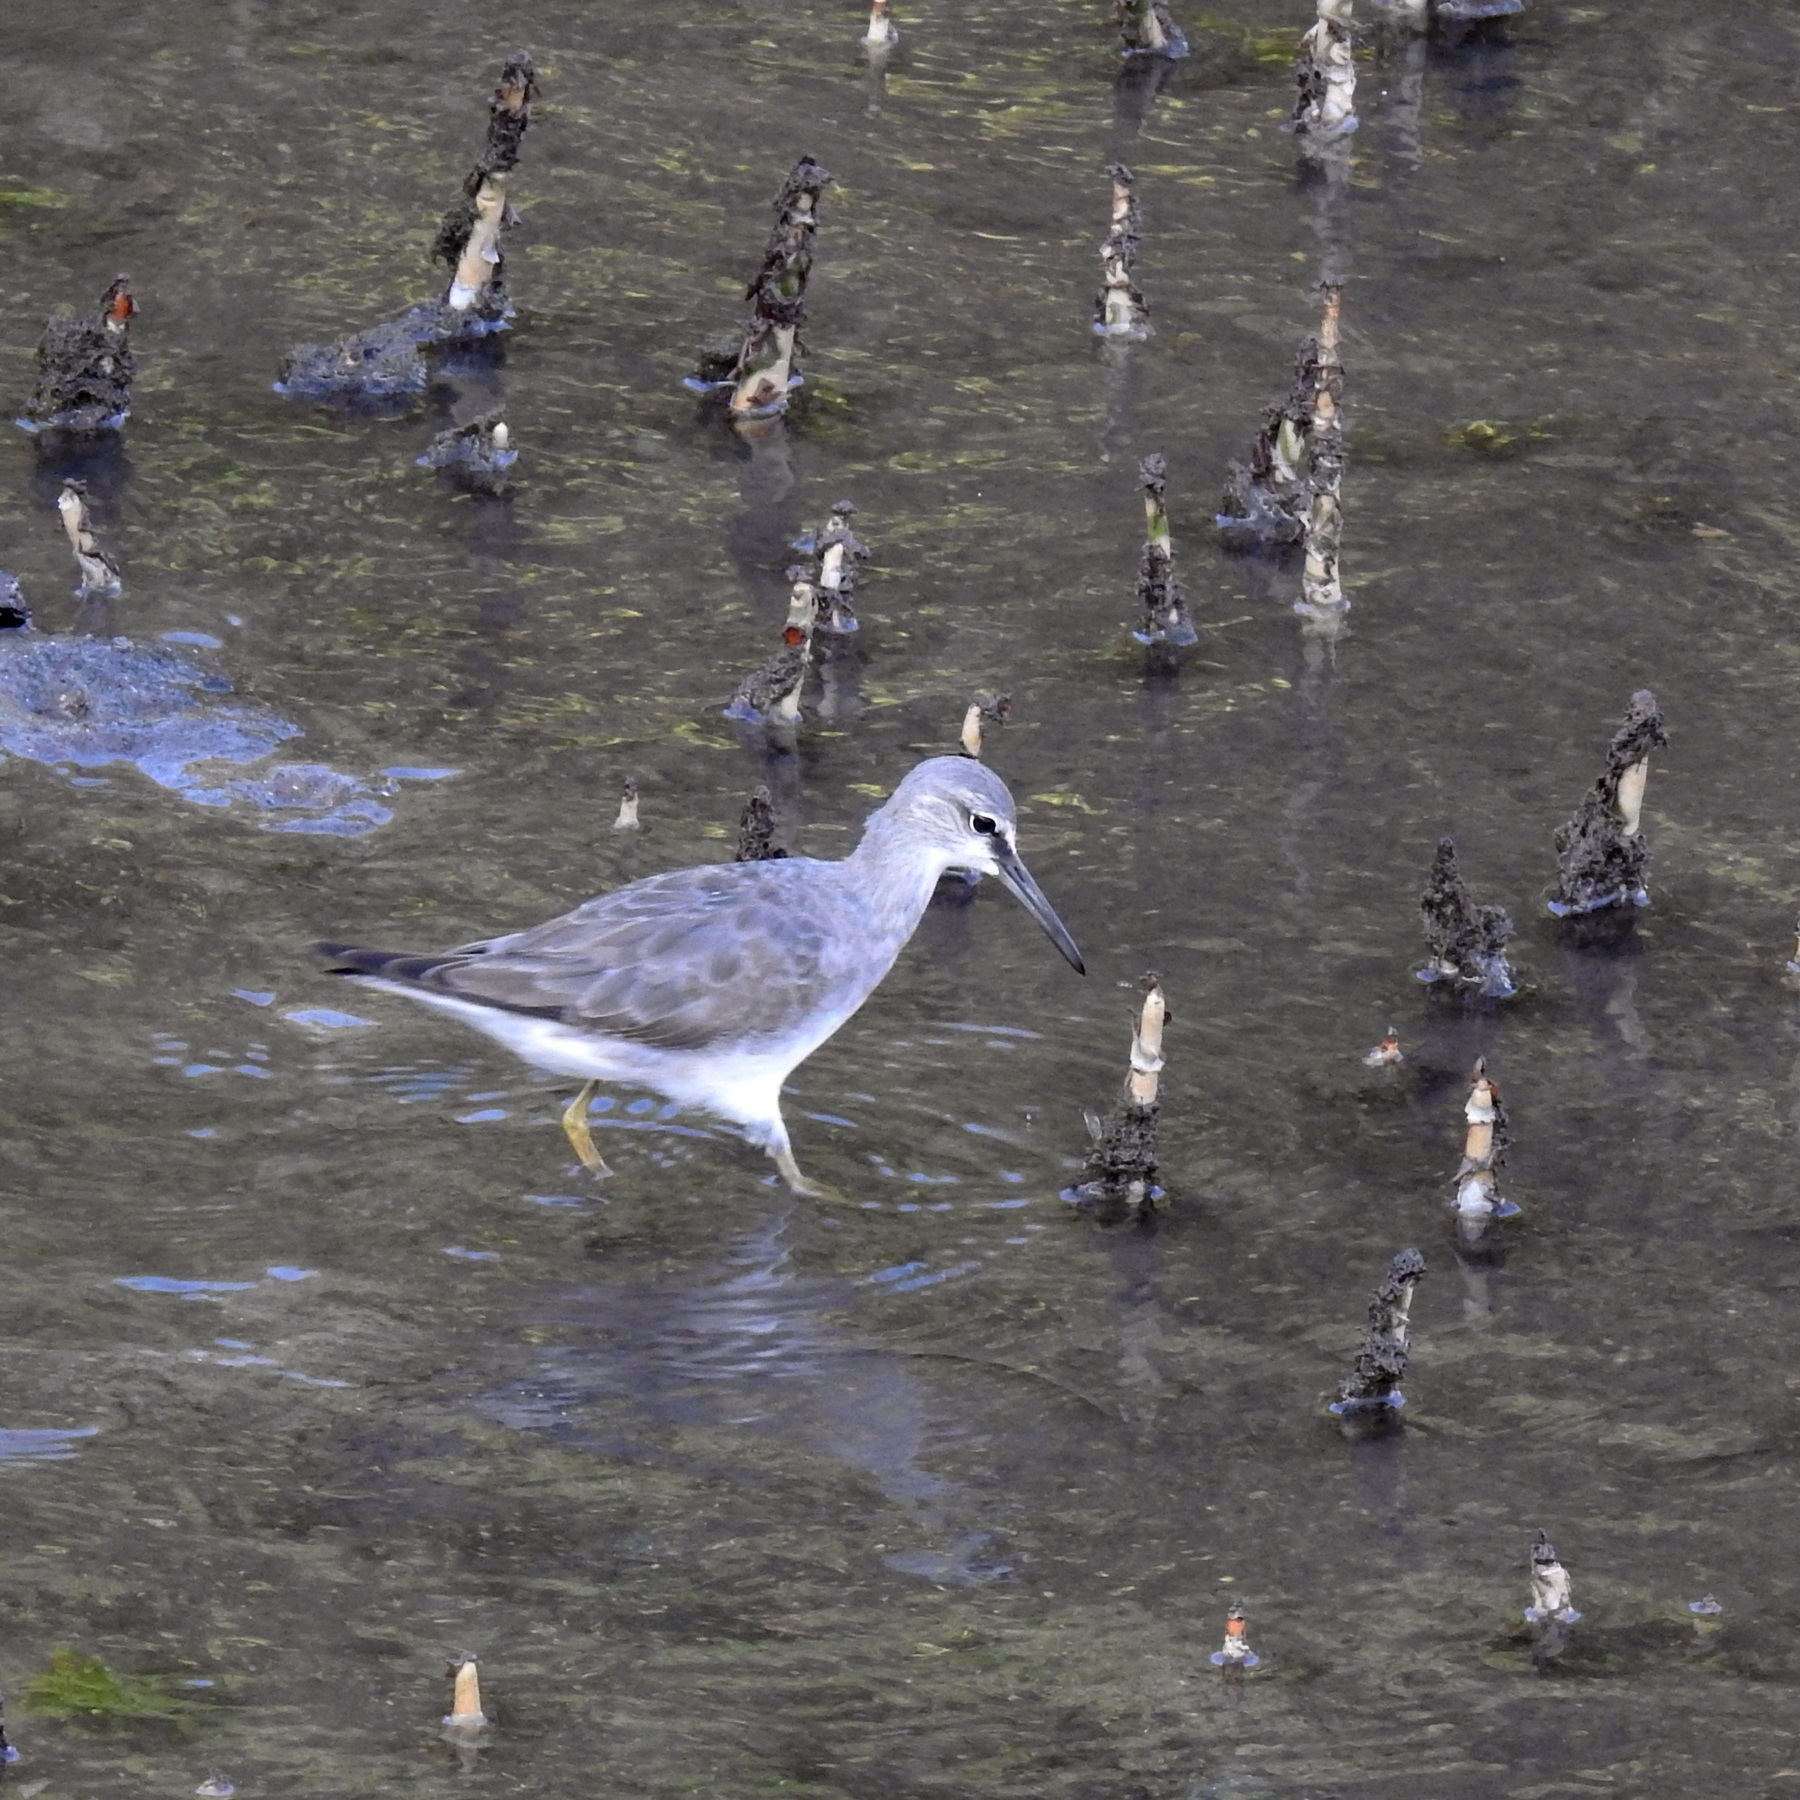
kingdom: Animalia
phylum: Chordata
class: Aves
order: Charadriiformes
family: Scolopacidae
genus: Tringa
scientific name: Tringa brevipes
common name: Grey-tailed tattler
